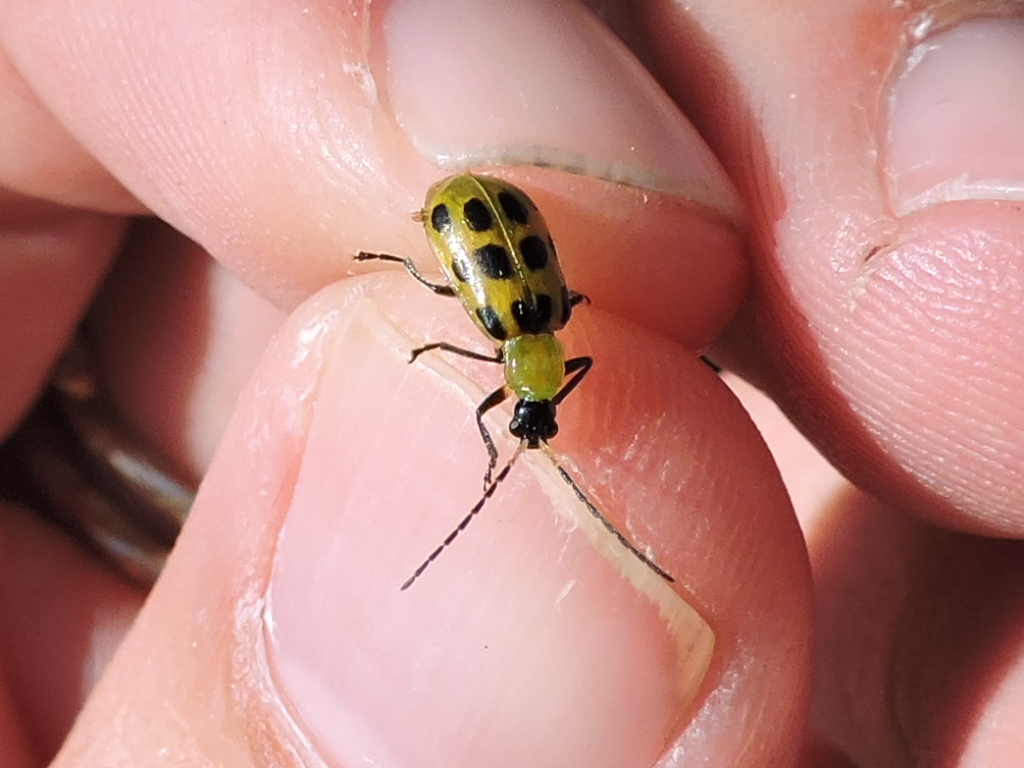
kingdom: Animalia
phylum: Arthropoda
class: Insecta
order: Coleoptera
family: Chrysomelidae
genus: Diabrotica
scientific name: Diabrotica undecimpunctata
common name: Spotted cucumber beetle
